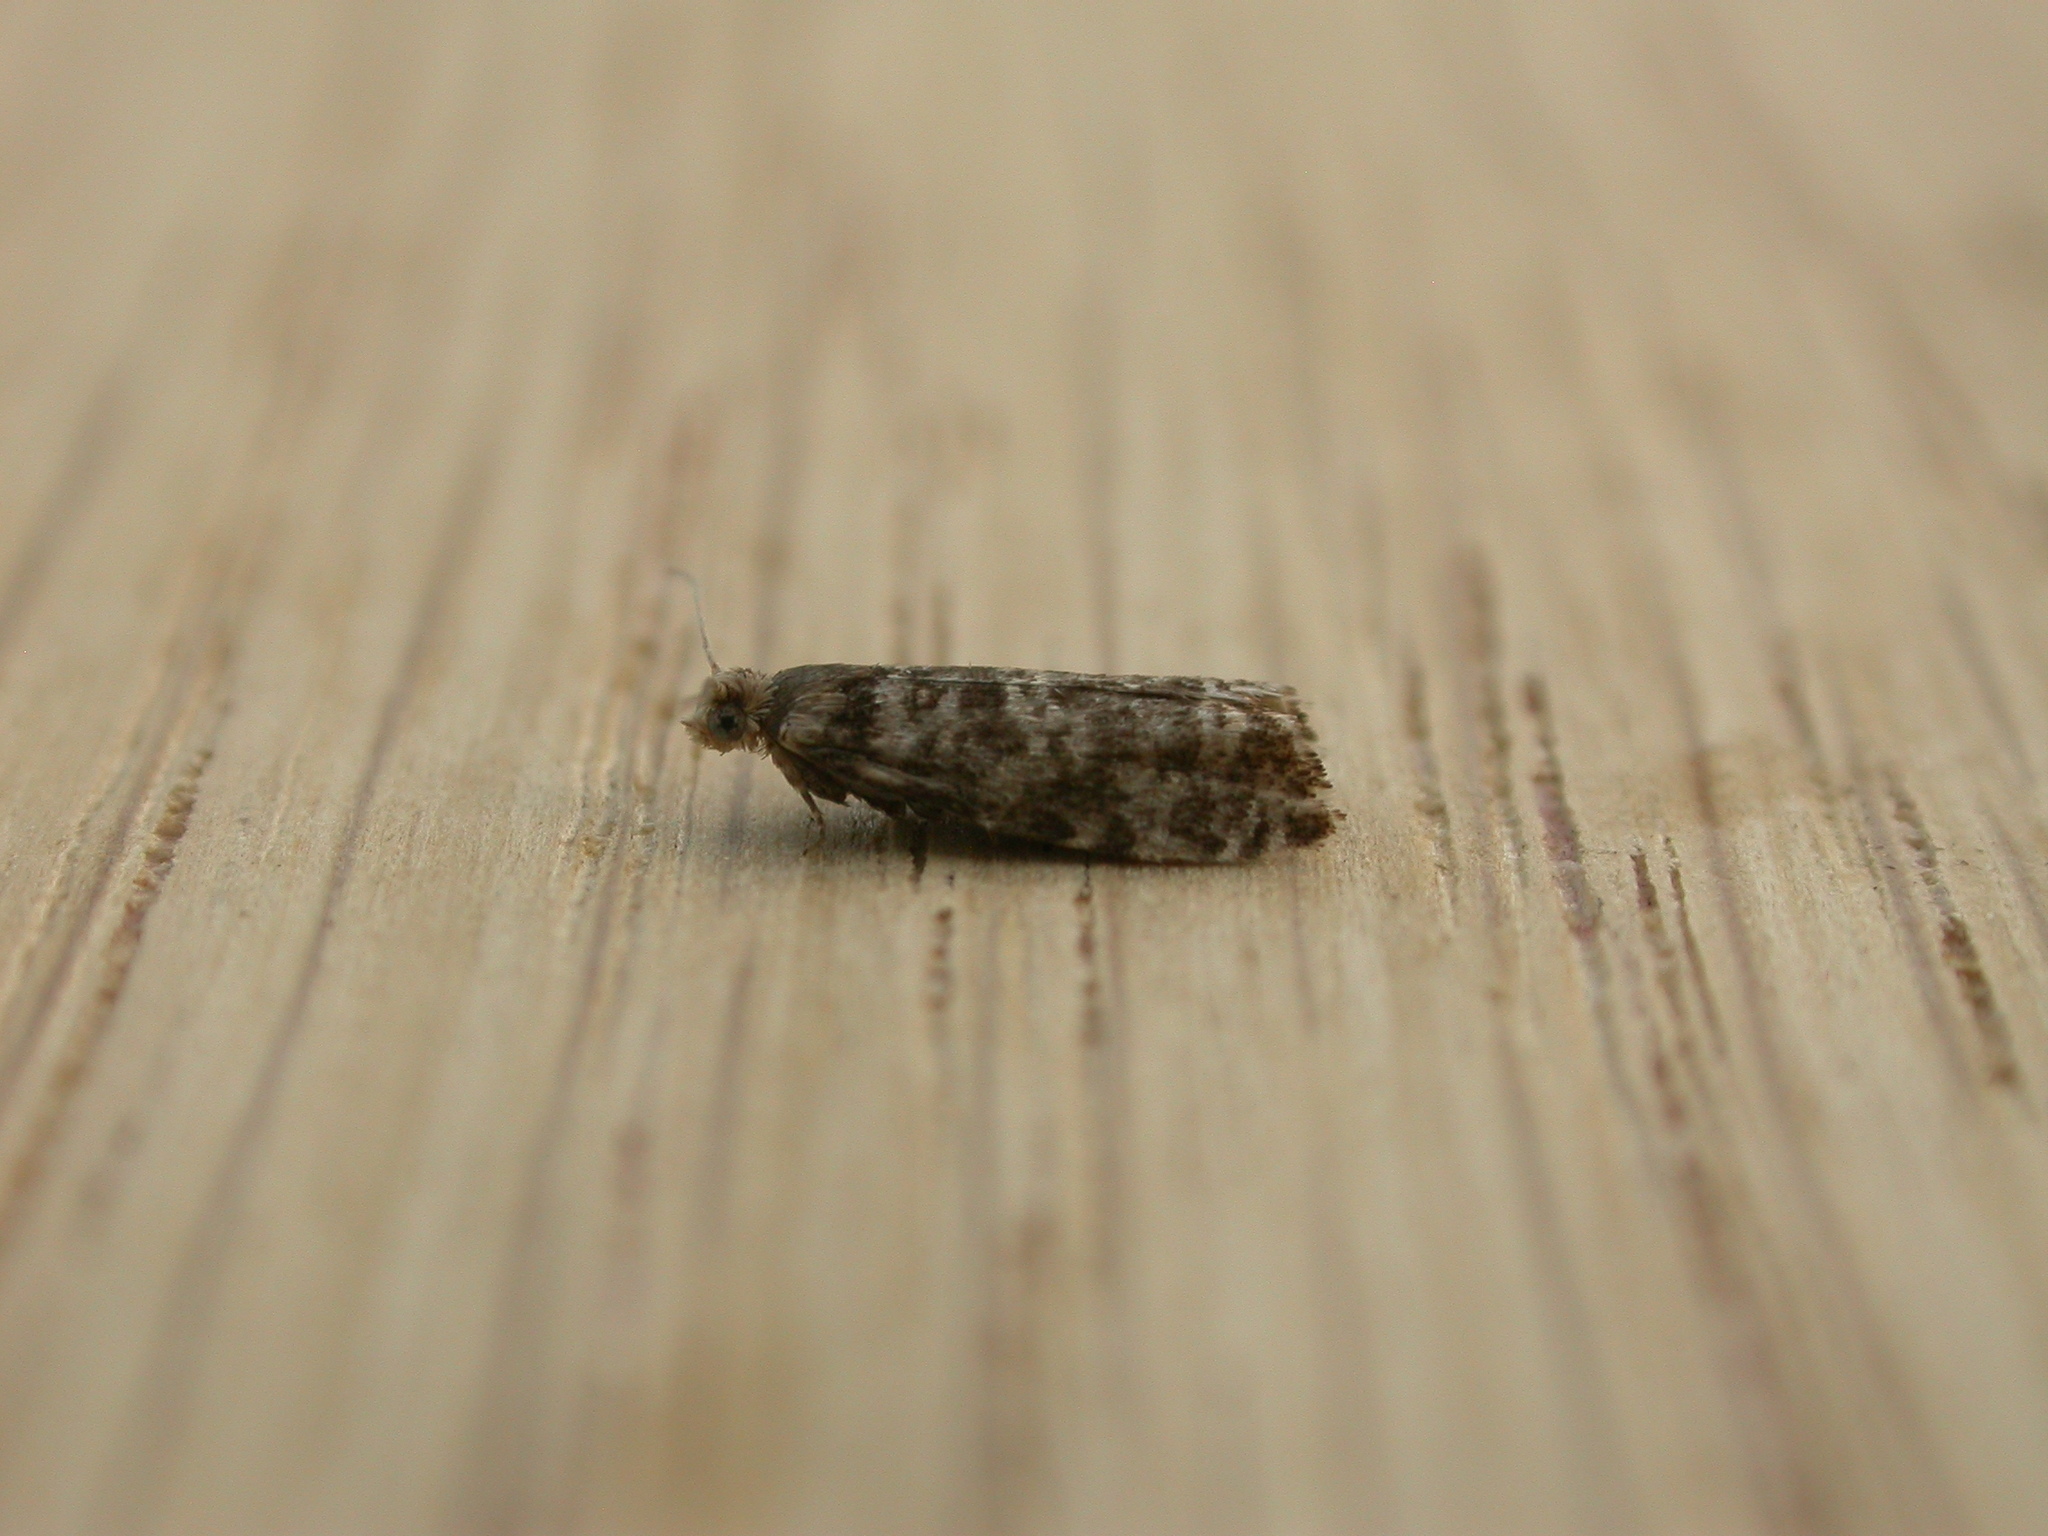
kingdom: Animalia
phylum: Arthropoda
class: Insecta
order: Lepidoptera
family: Tortricidae
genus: Epinotia
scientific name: Epinotia tedella
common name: Common spruce bell
